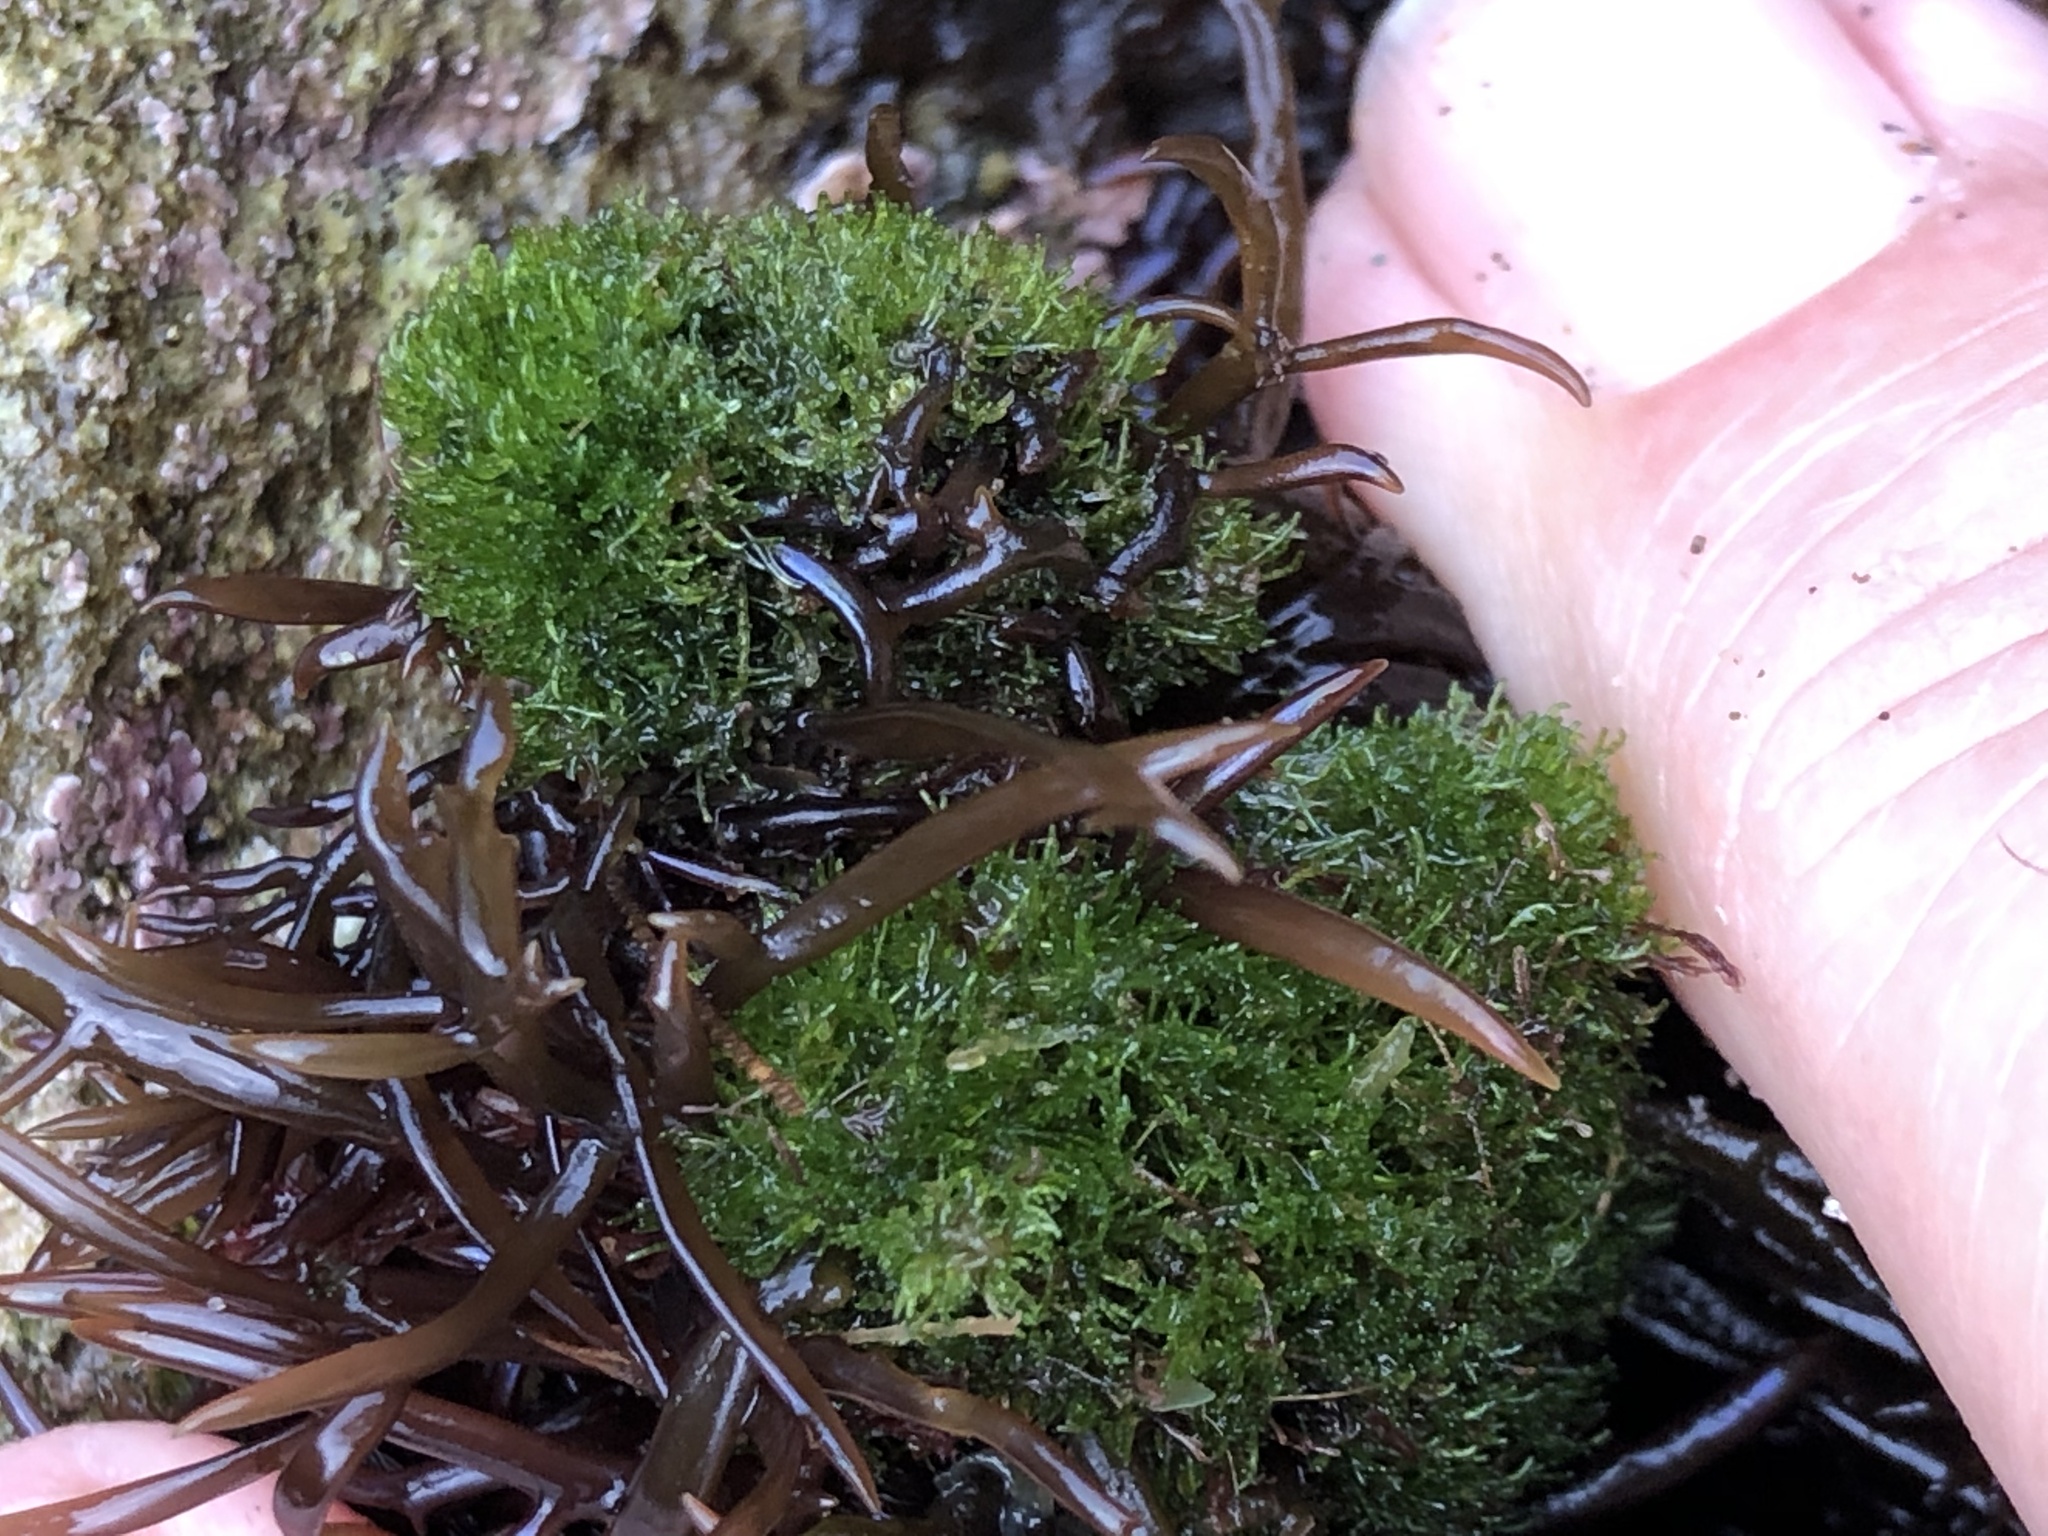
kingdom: Plantae
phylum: Chlorophyta
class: Ulvophyceae
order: Cladophorales
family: Cladophoraceae
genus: Cladophora
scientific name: Cladophora columbiana
